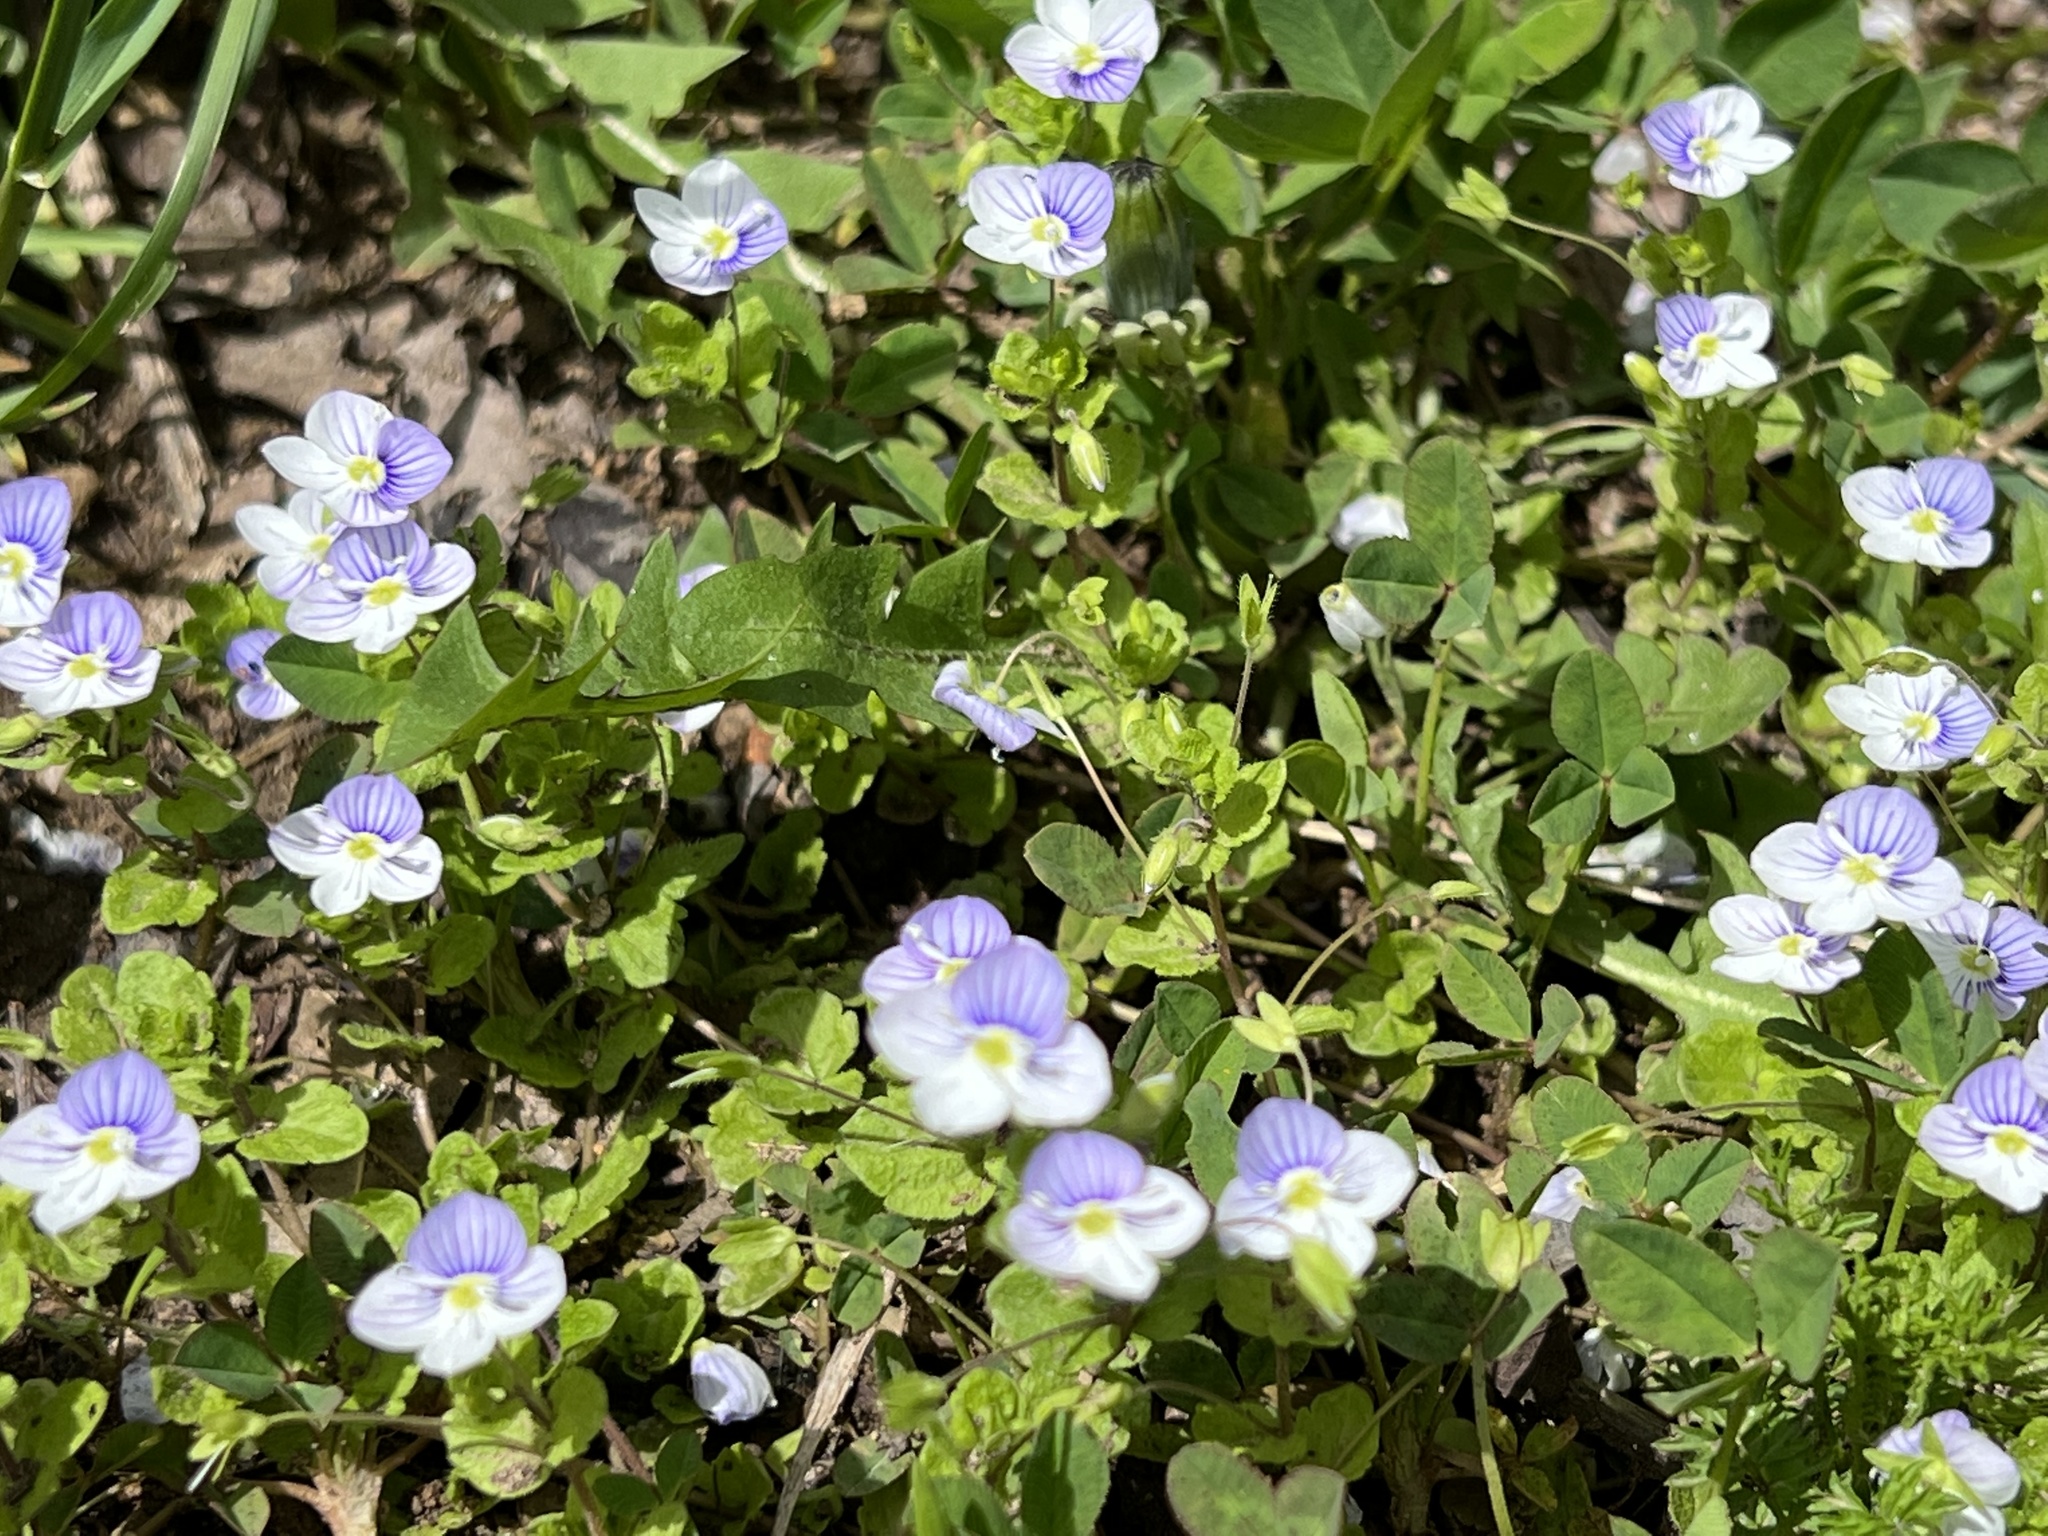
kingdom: Plantae
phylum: Tracheophyta
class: Magnoliopsida
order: Lamiales
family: Plantaginaceae
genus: Veronica
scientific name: Veronica filiformis
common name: Slender speedwell
